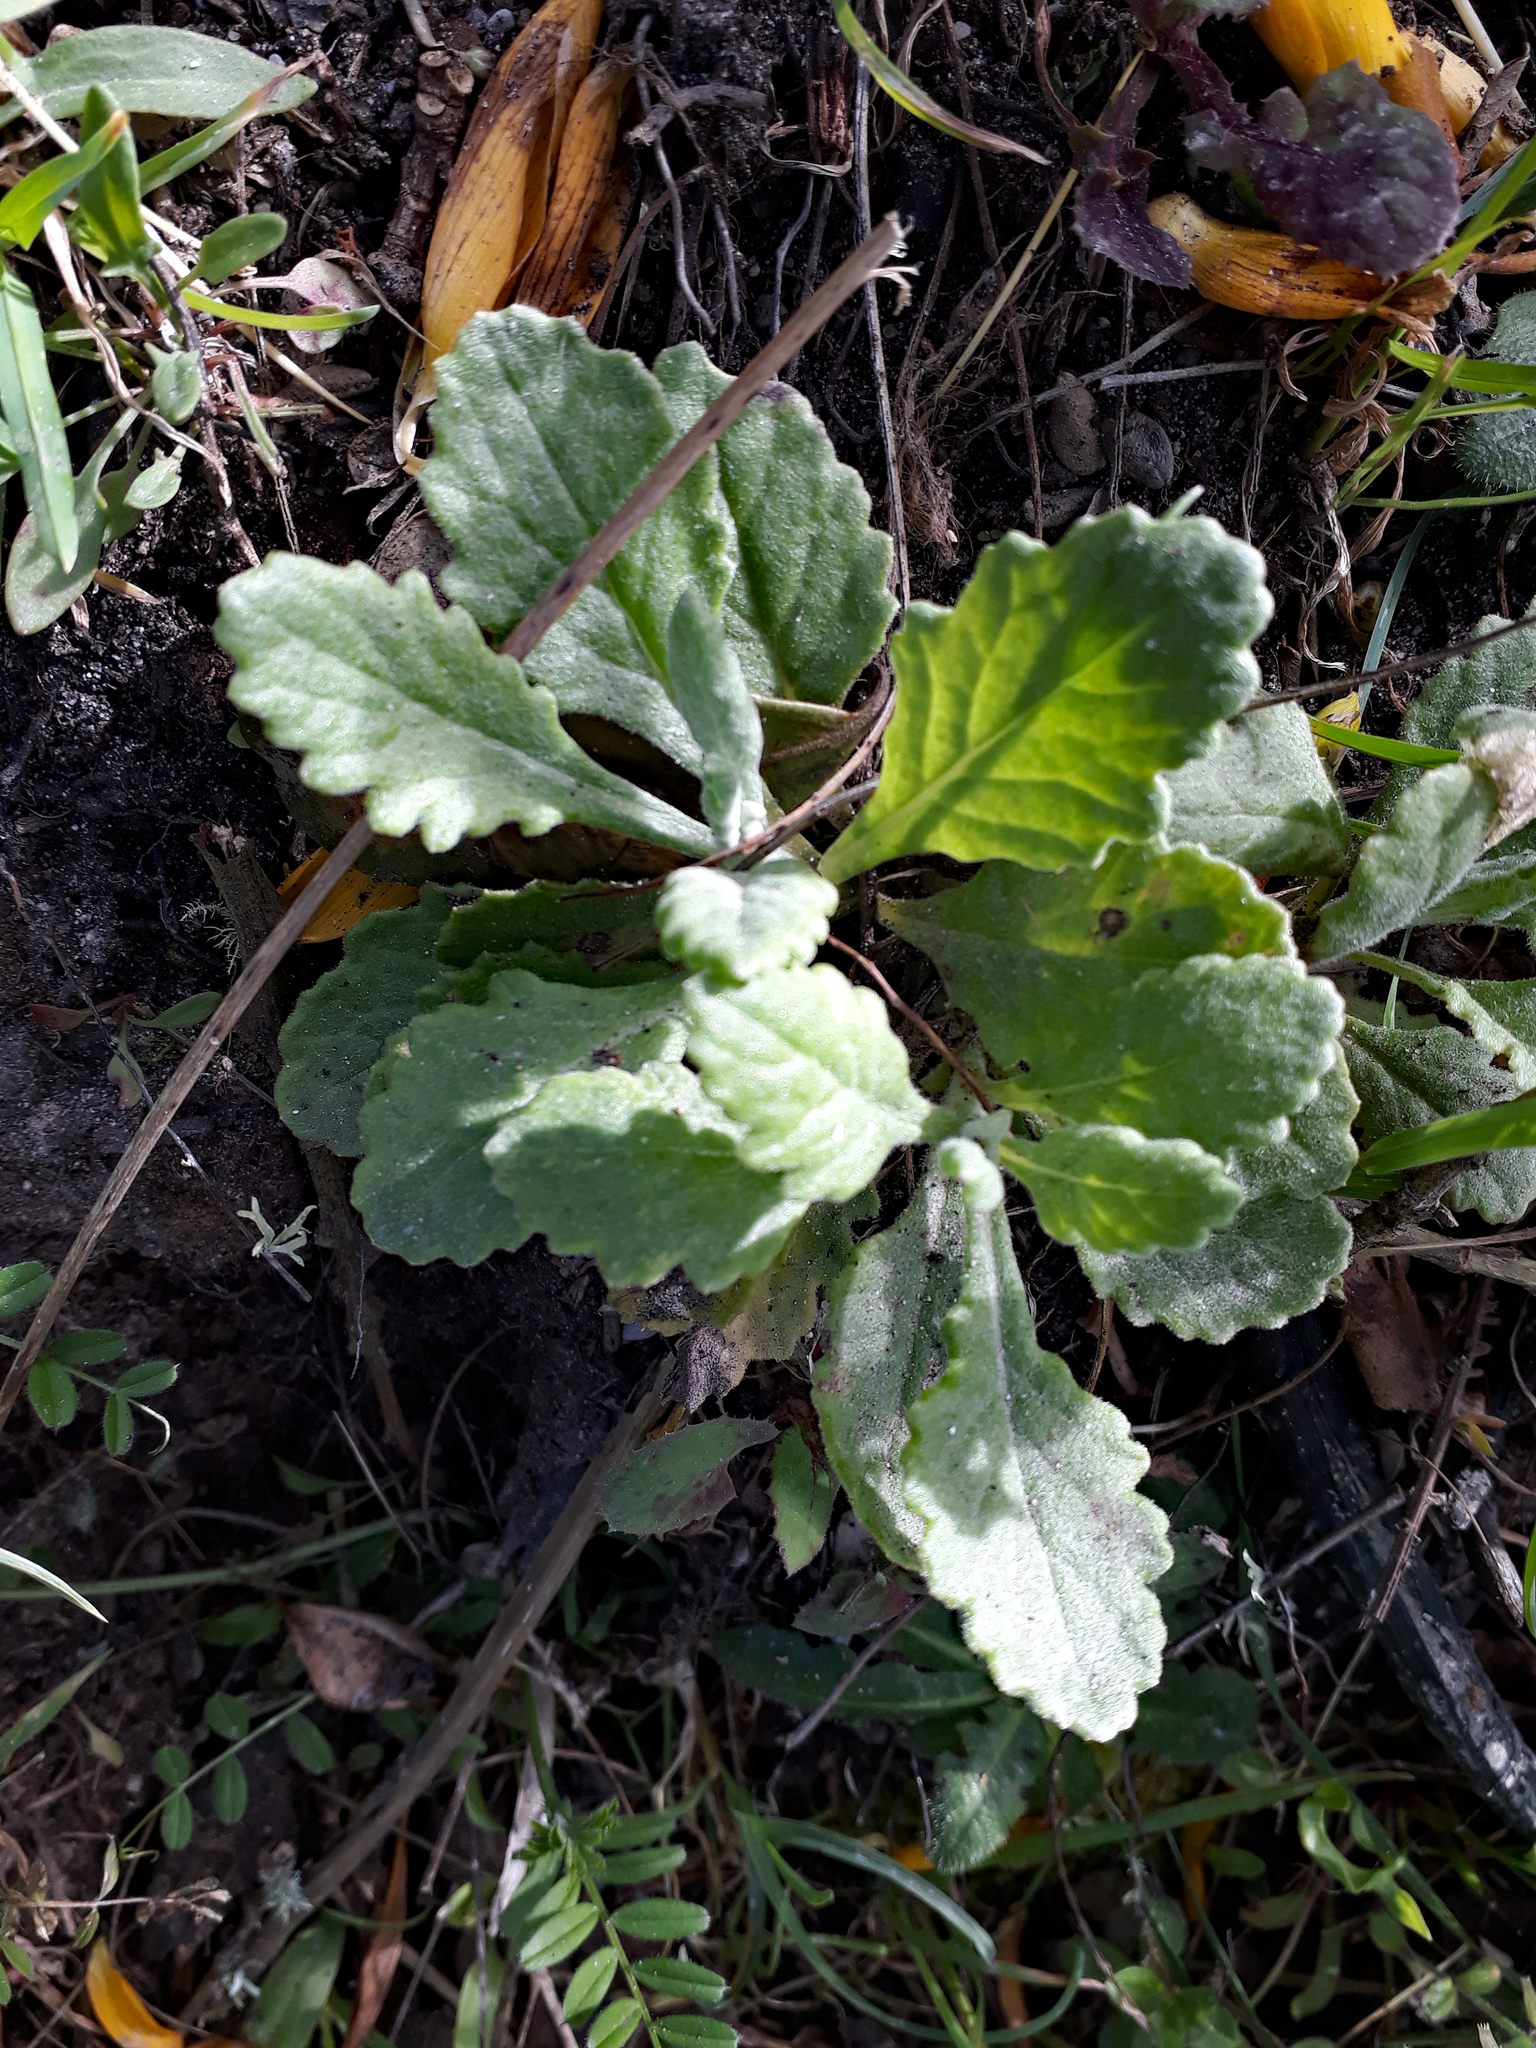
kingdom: Plantae
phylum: Tracheophyta
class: Magnoliopsida
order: Asterales
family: Asteraceae
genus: Senecio
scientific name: Senecio glomeratus
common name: Cutleaf burnweed
